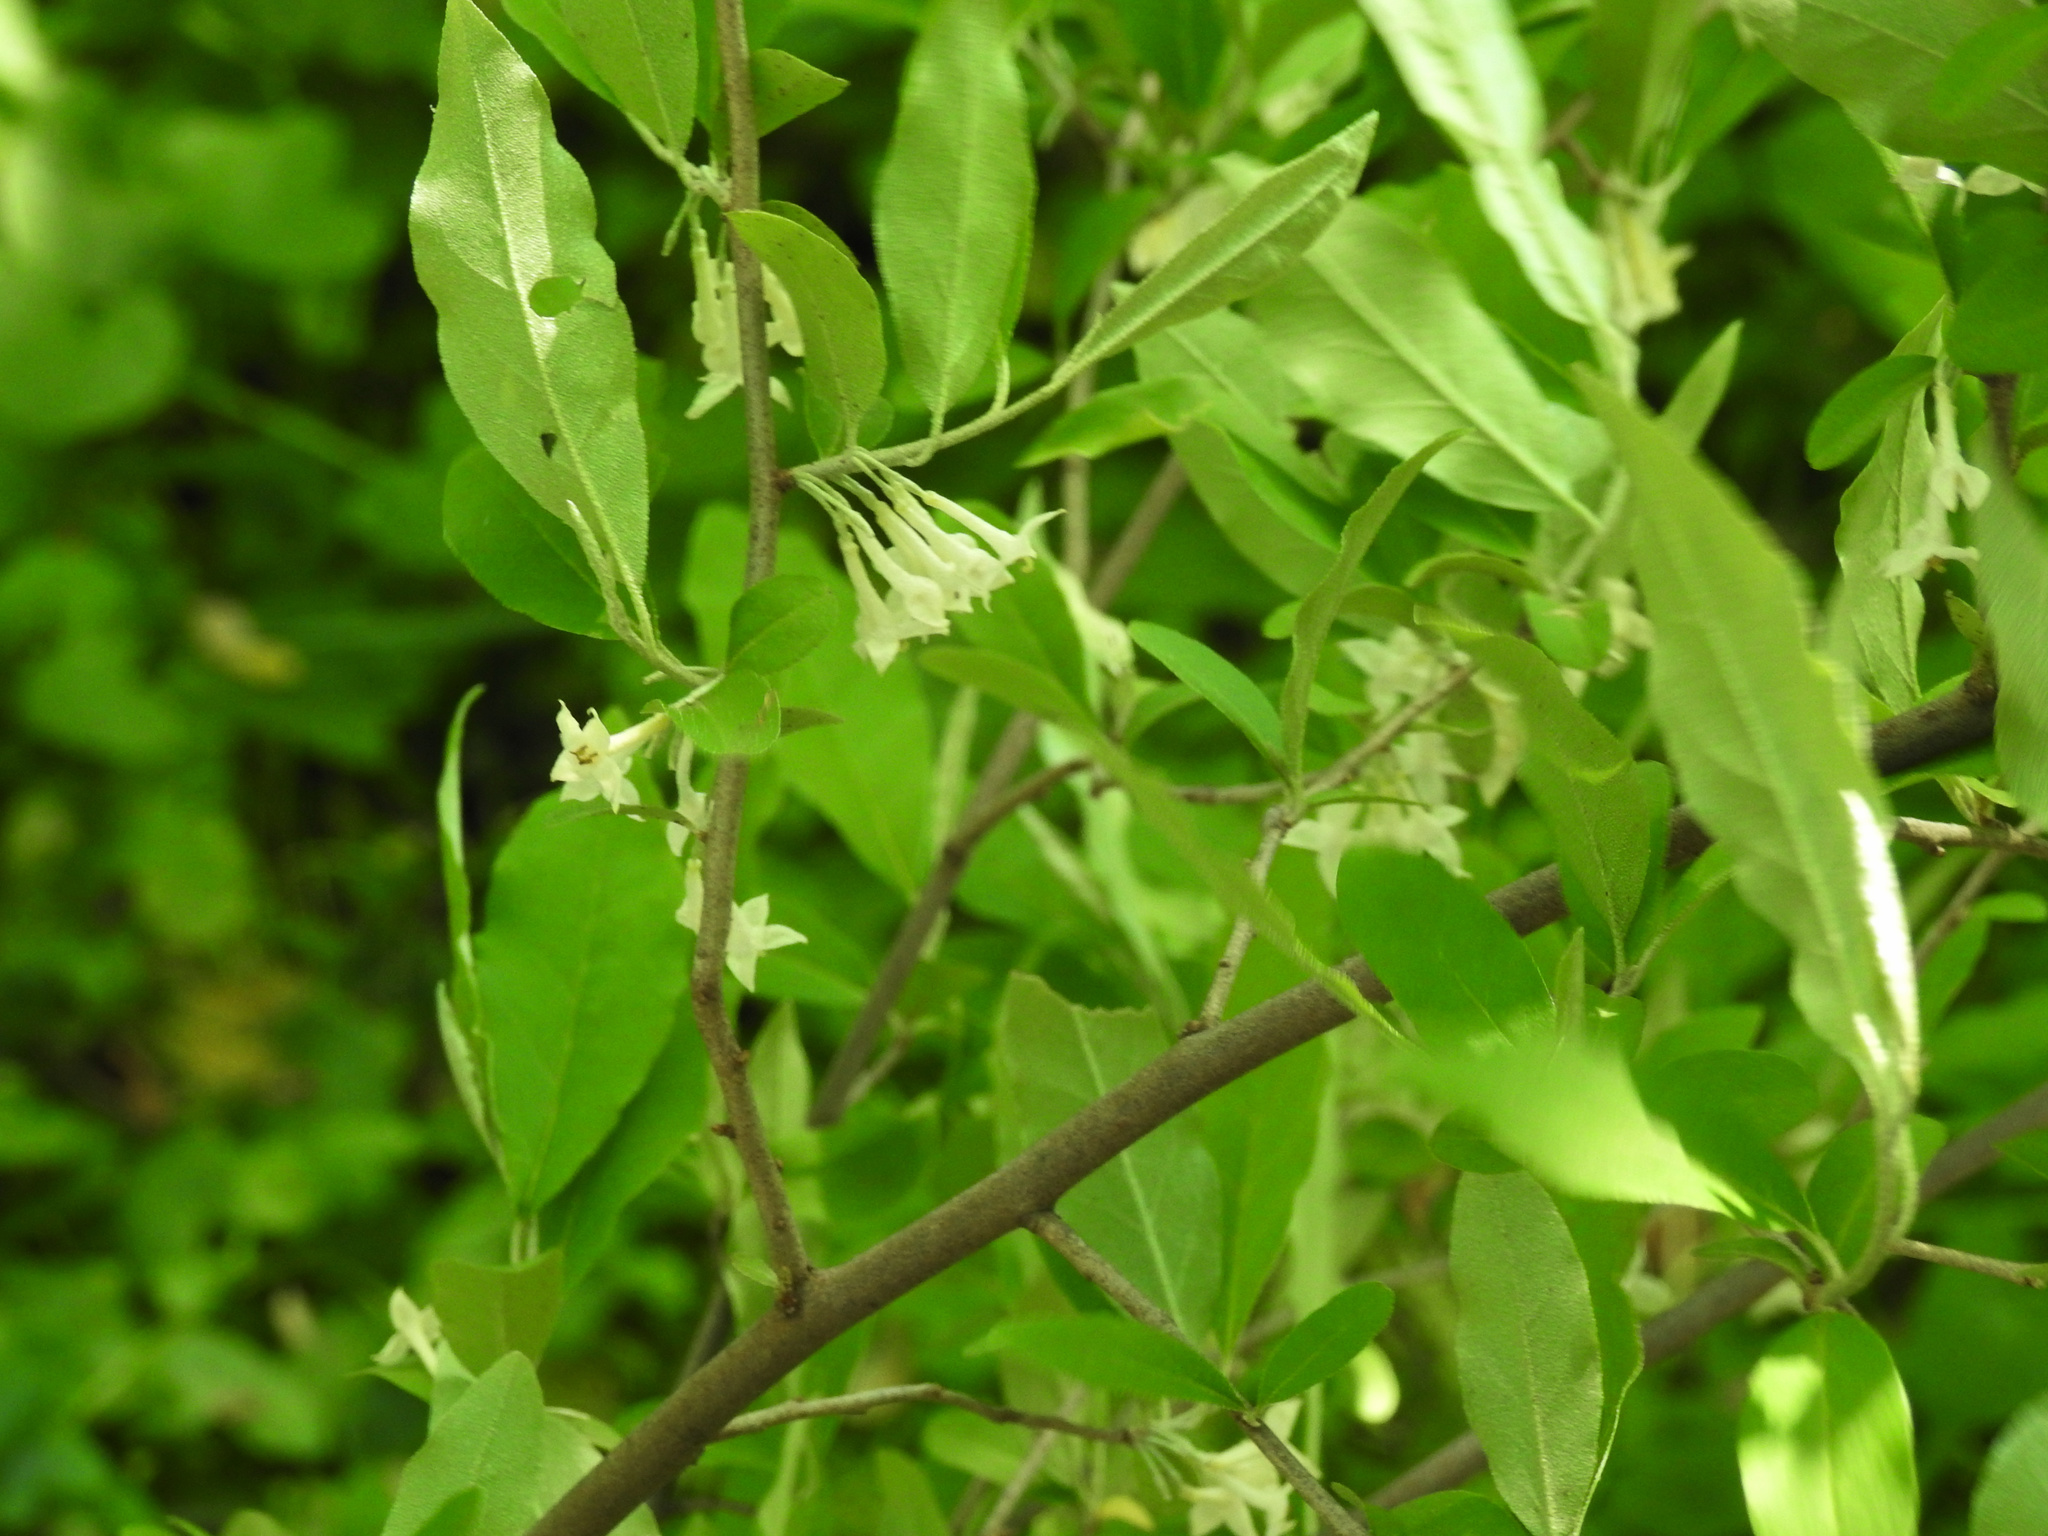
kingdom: Plantae
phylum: Tracheophyta
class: Magnoliopsida
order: Rosales
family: Elaeagnaceae
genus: Elaeagnus
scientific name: Elaeagnus umbellata
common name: Autumn olive
